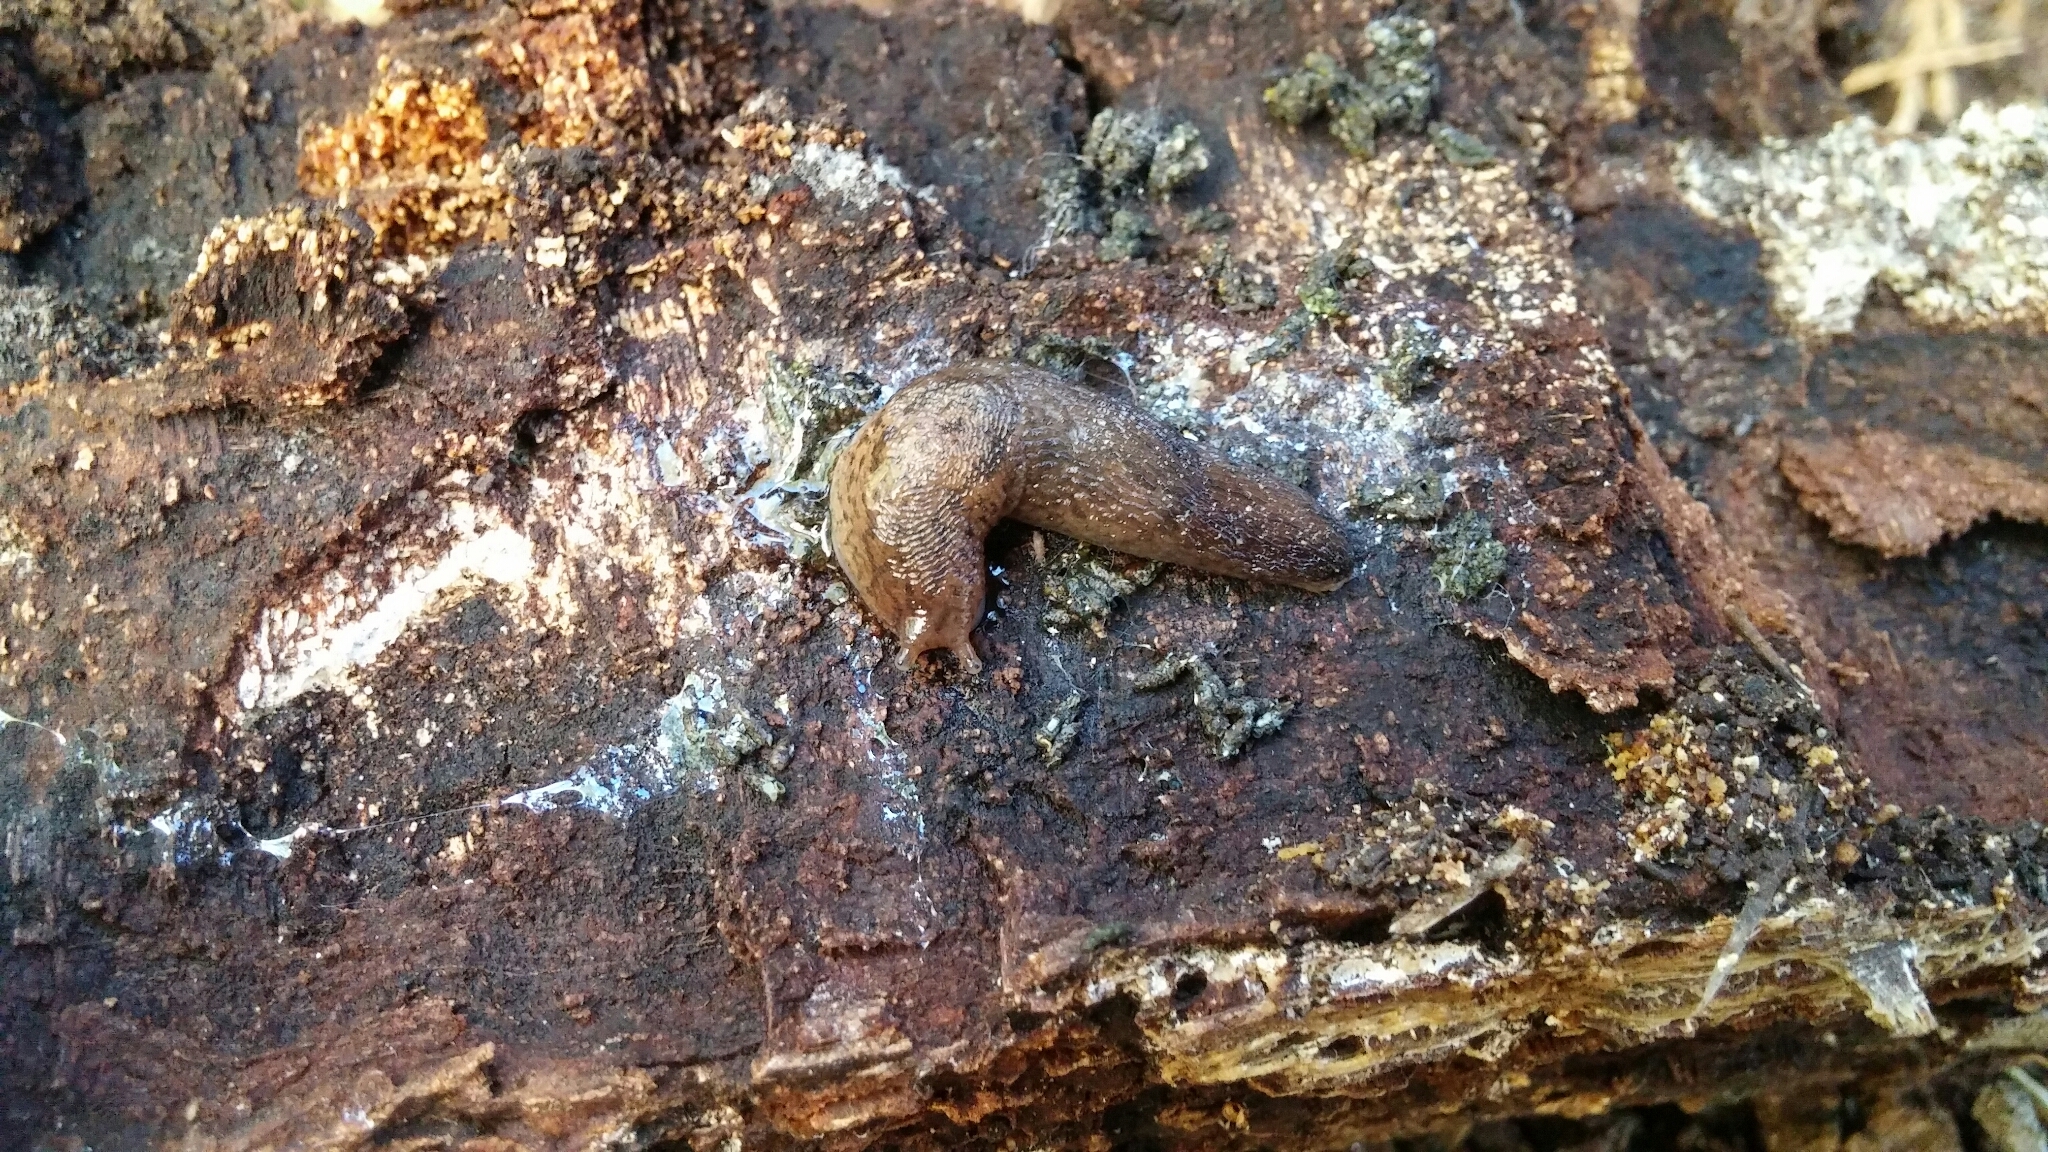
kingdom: Animalia
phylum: Mollusca
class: Gastropoda
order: Stylommatophora
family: Limacidae
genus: Ambigolimax
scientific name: Ambigolimax
